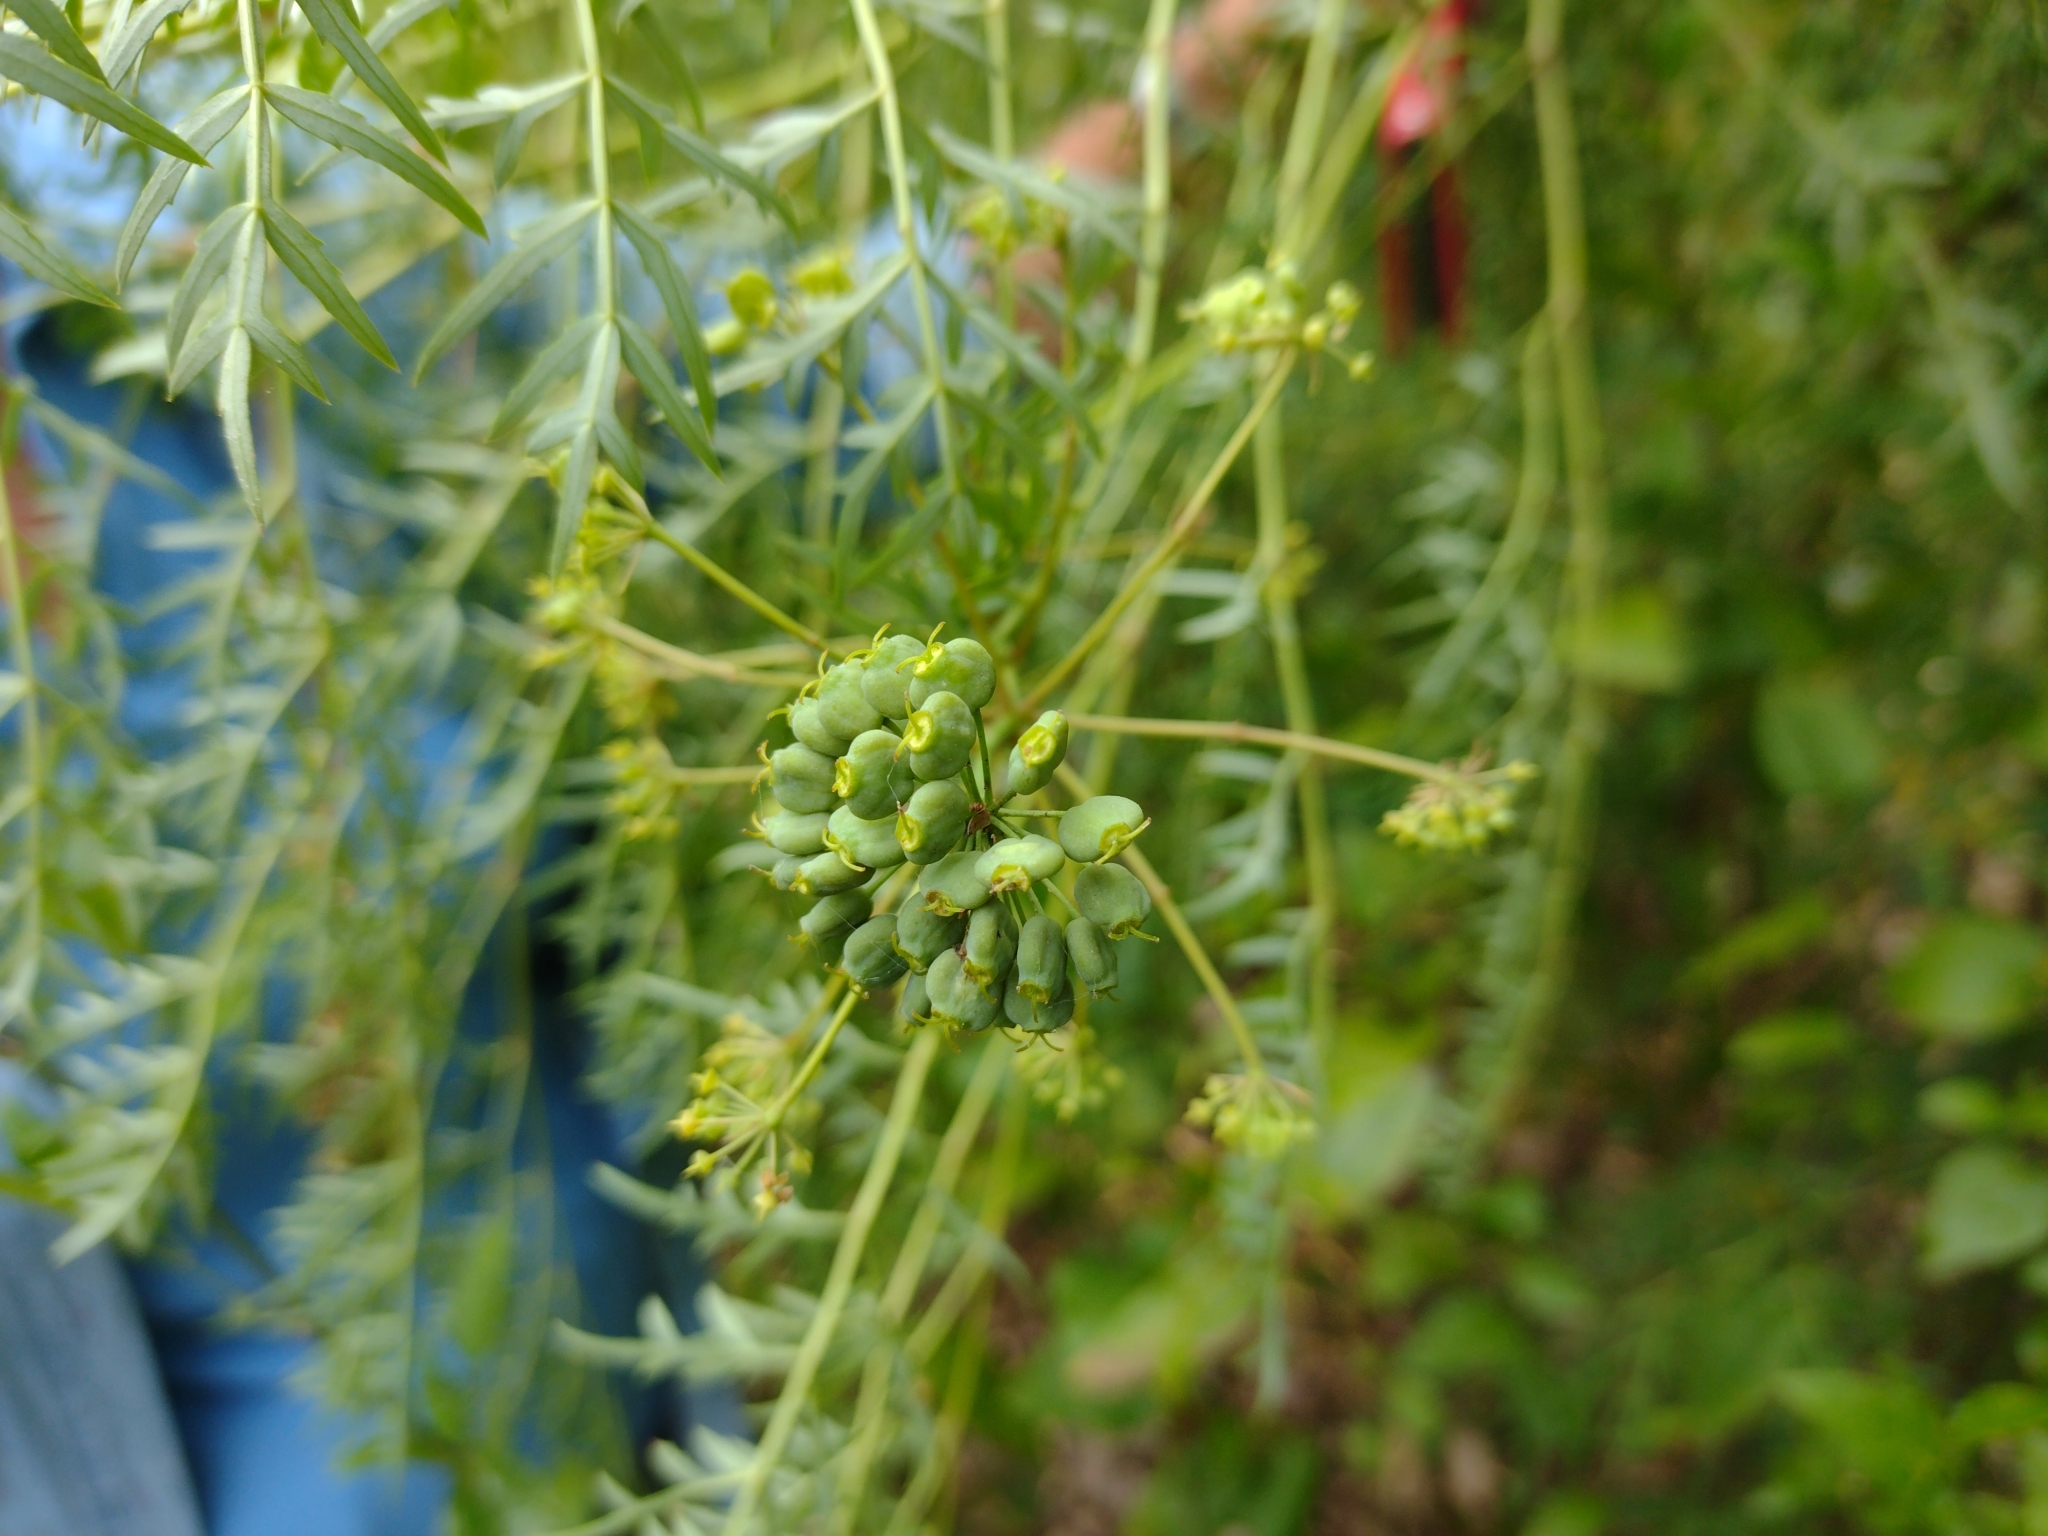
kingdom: Plantae
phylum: Tracheophyta
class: Magnoliopsida
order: Apiales
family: Araliaceae
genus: Polyscias
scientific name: Polyscias sambucifolia
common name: Elderberry-ash
